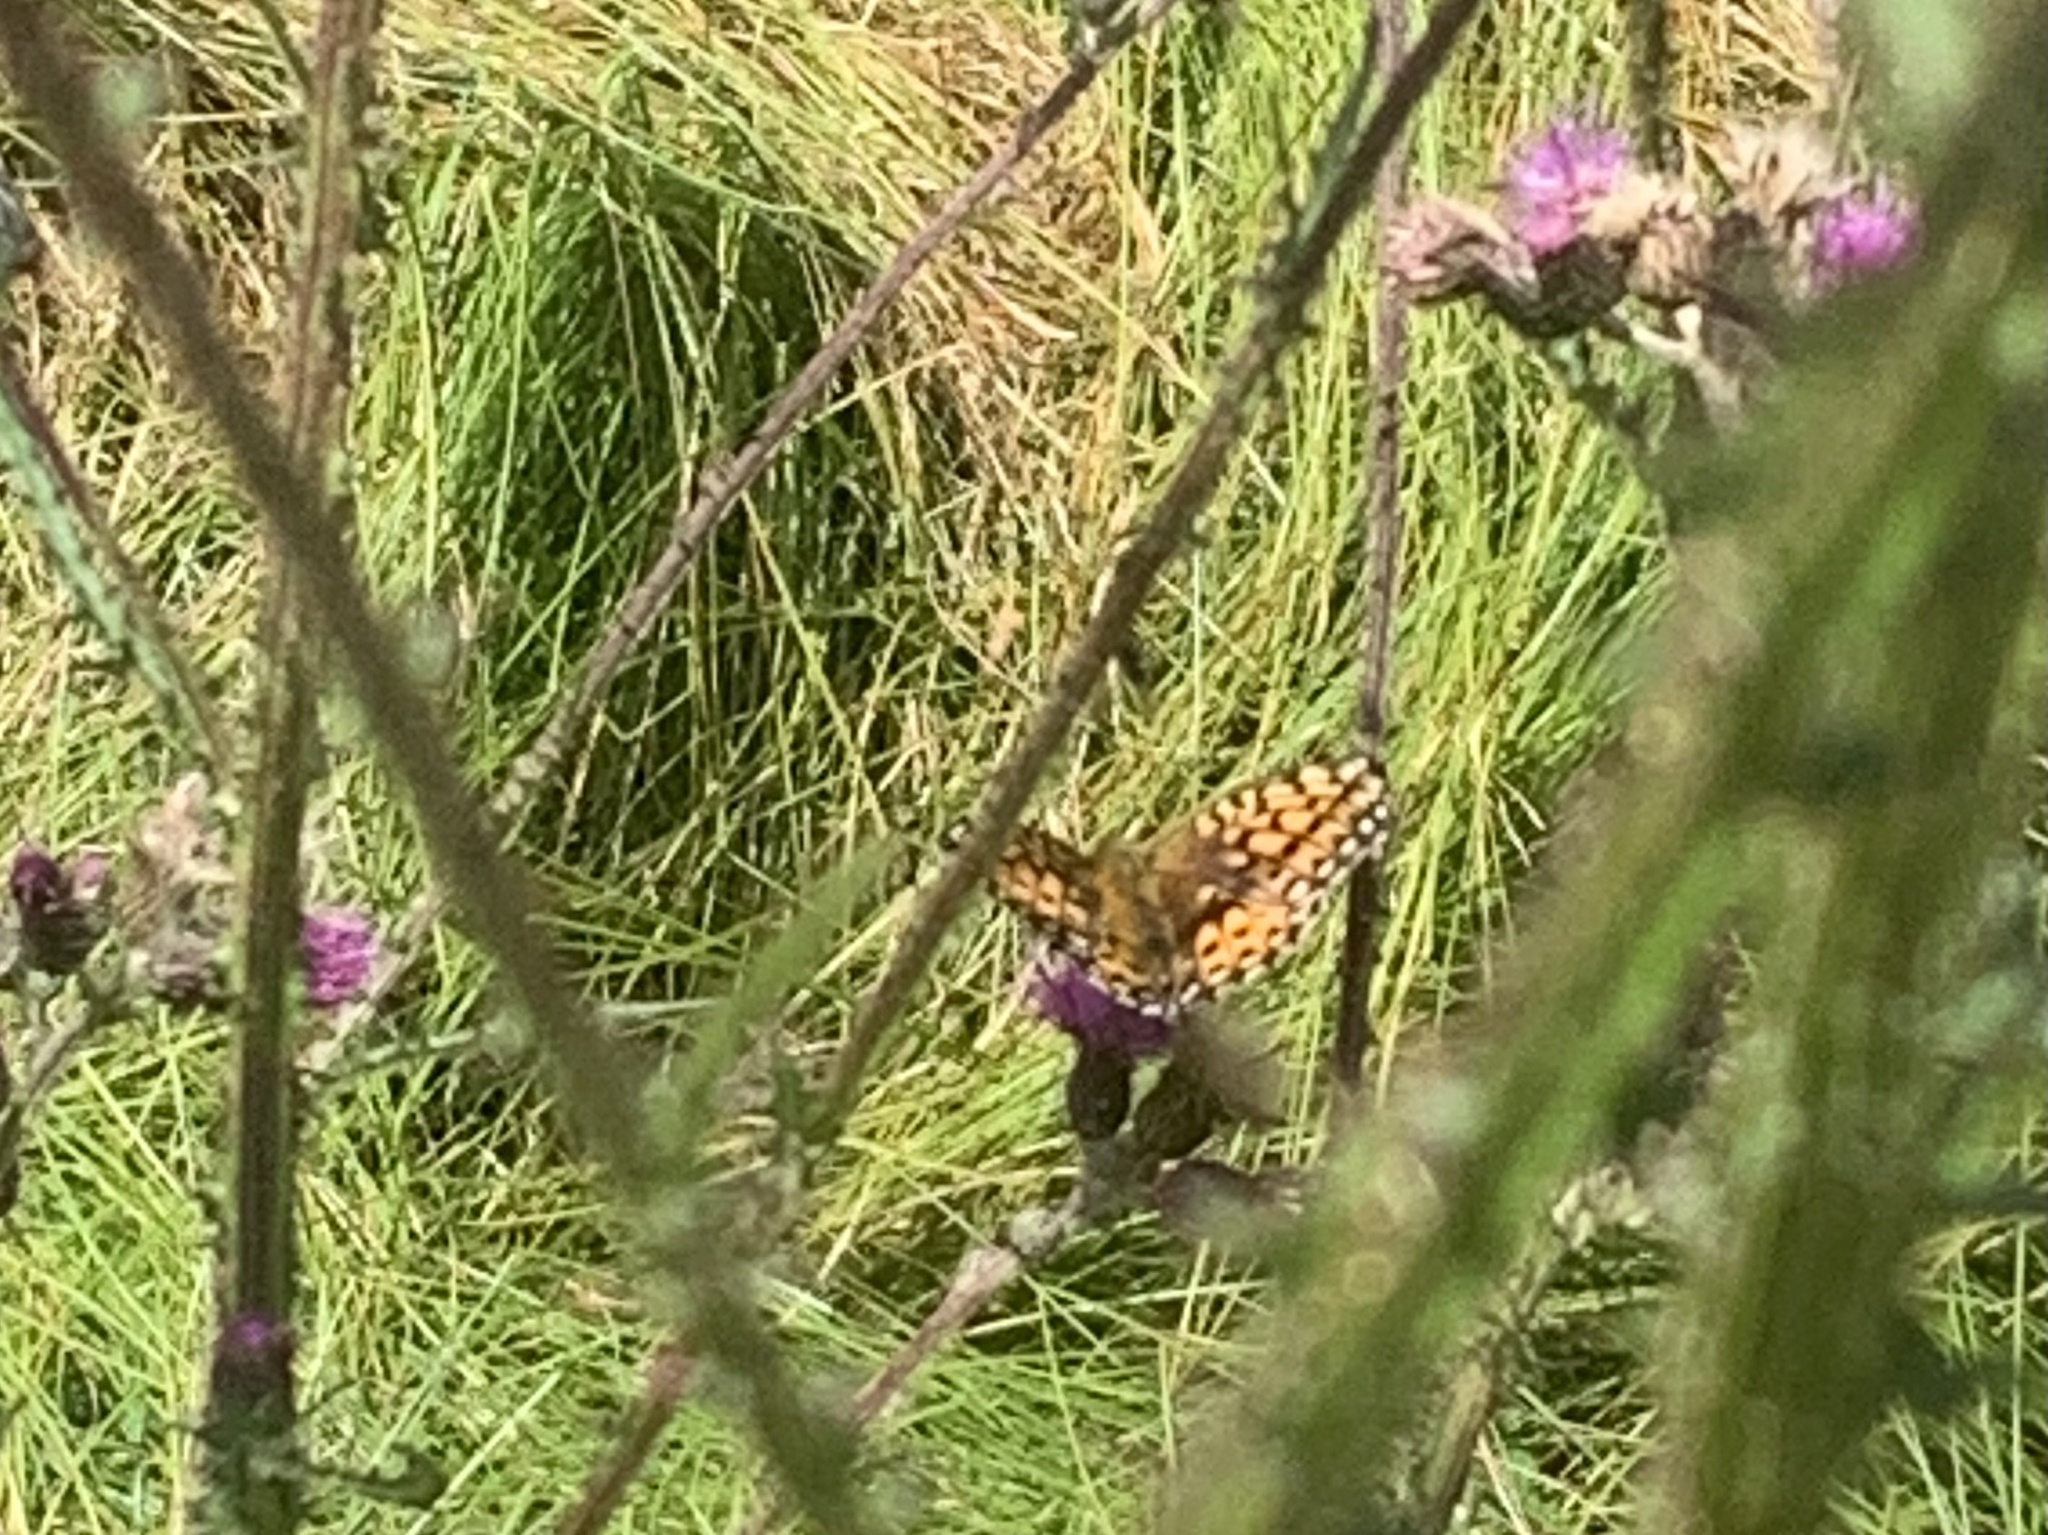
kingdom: Animalia
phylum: Arthropoda
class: Insecta
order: Lepidoptera
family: Nymphalidae
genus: Speyeria
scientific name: Speyeria aglaja
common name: Dark green fritillary
